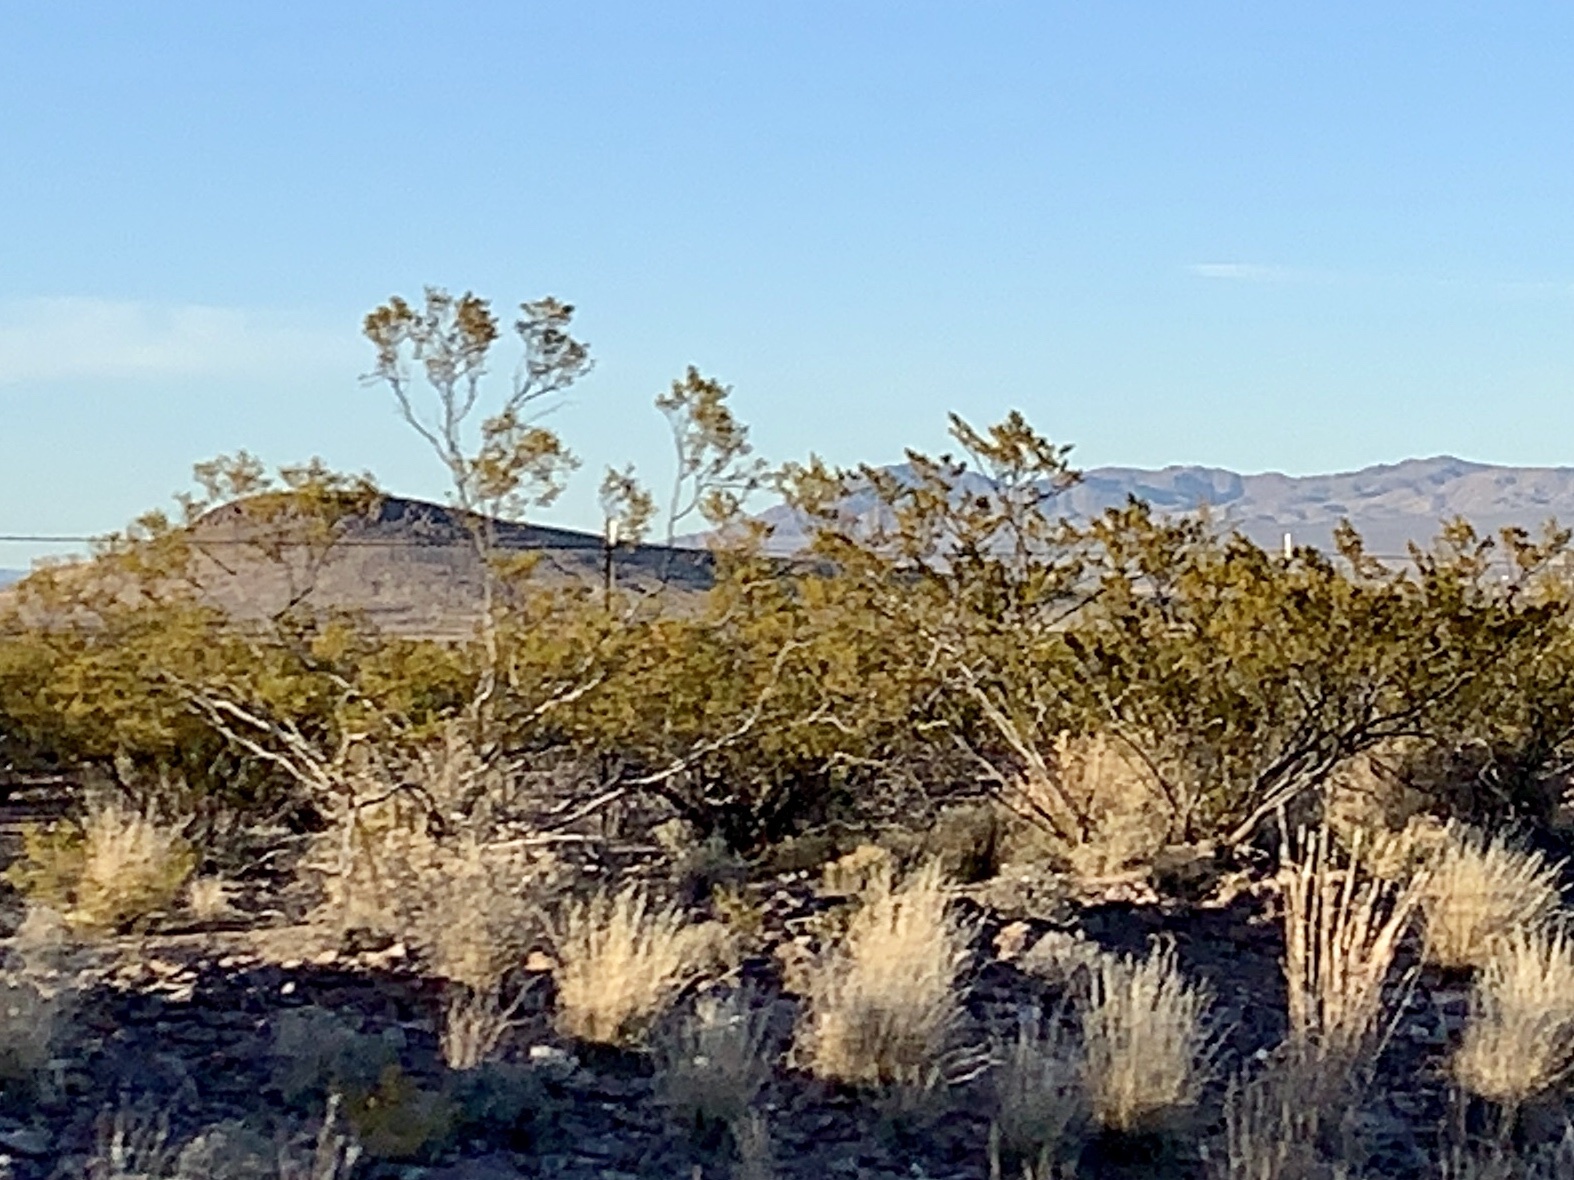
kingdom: Plantae
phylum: Tracheophyta
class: Magnoliopsida
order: Zygophyllales
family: Zygophyllaceae
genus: Larrea
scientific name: Larrea tridentata
